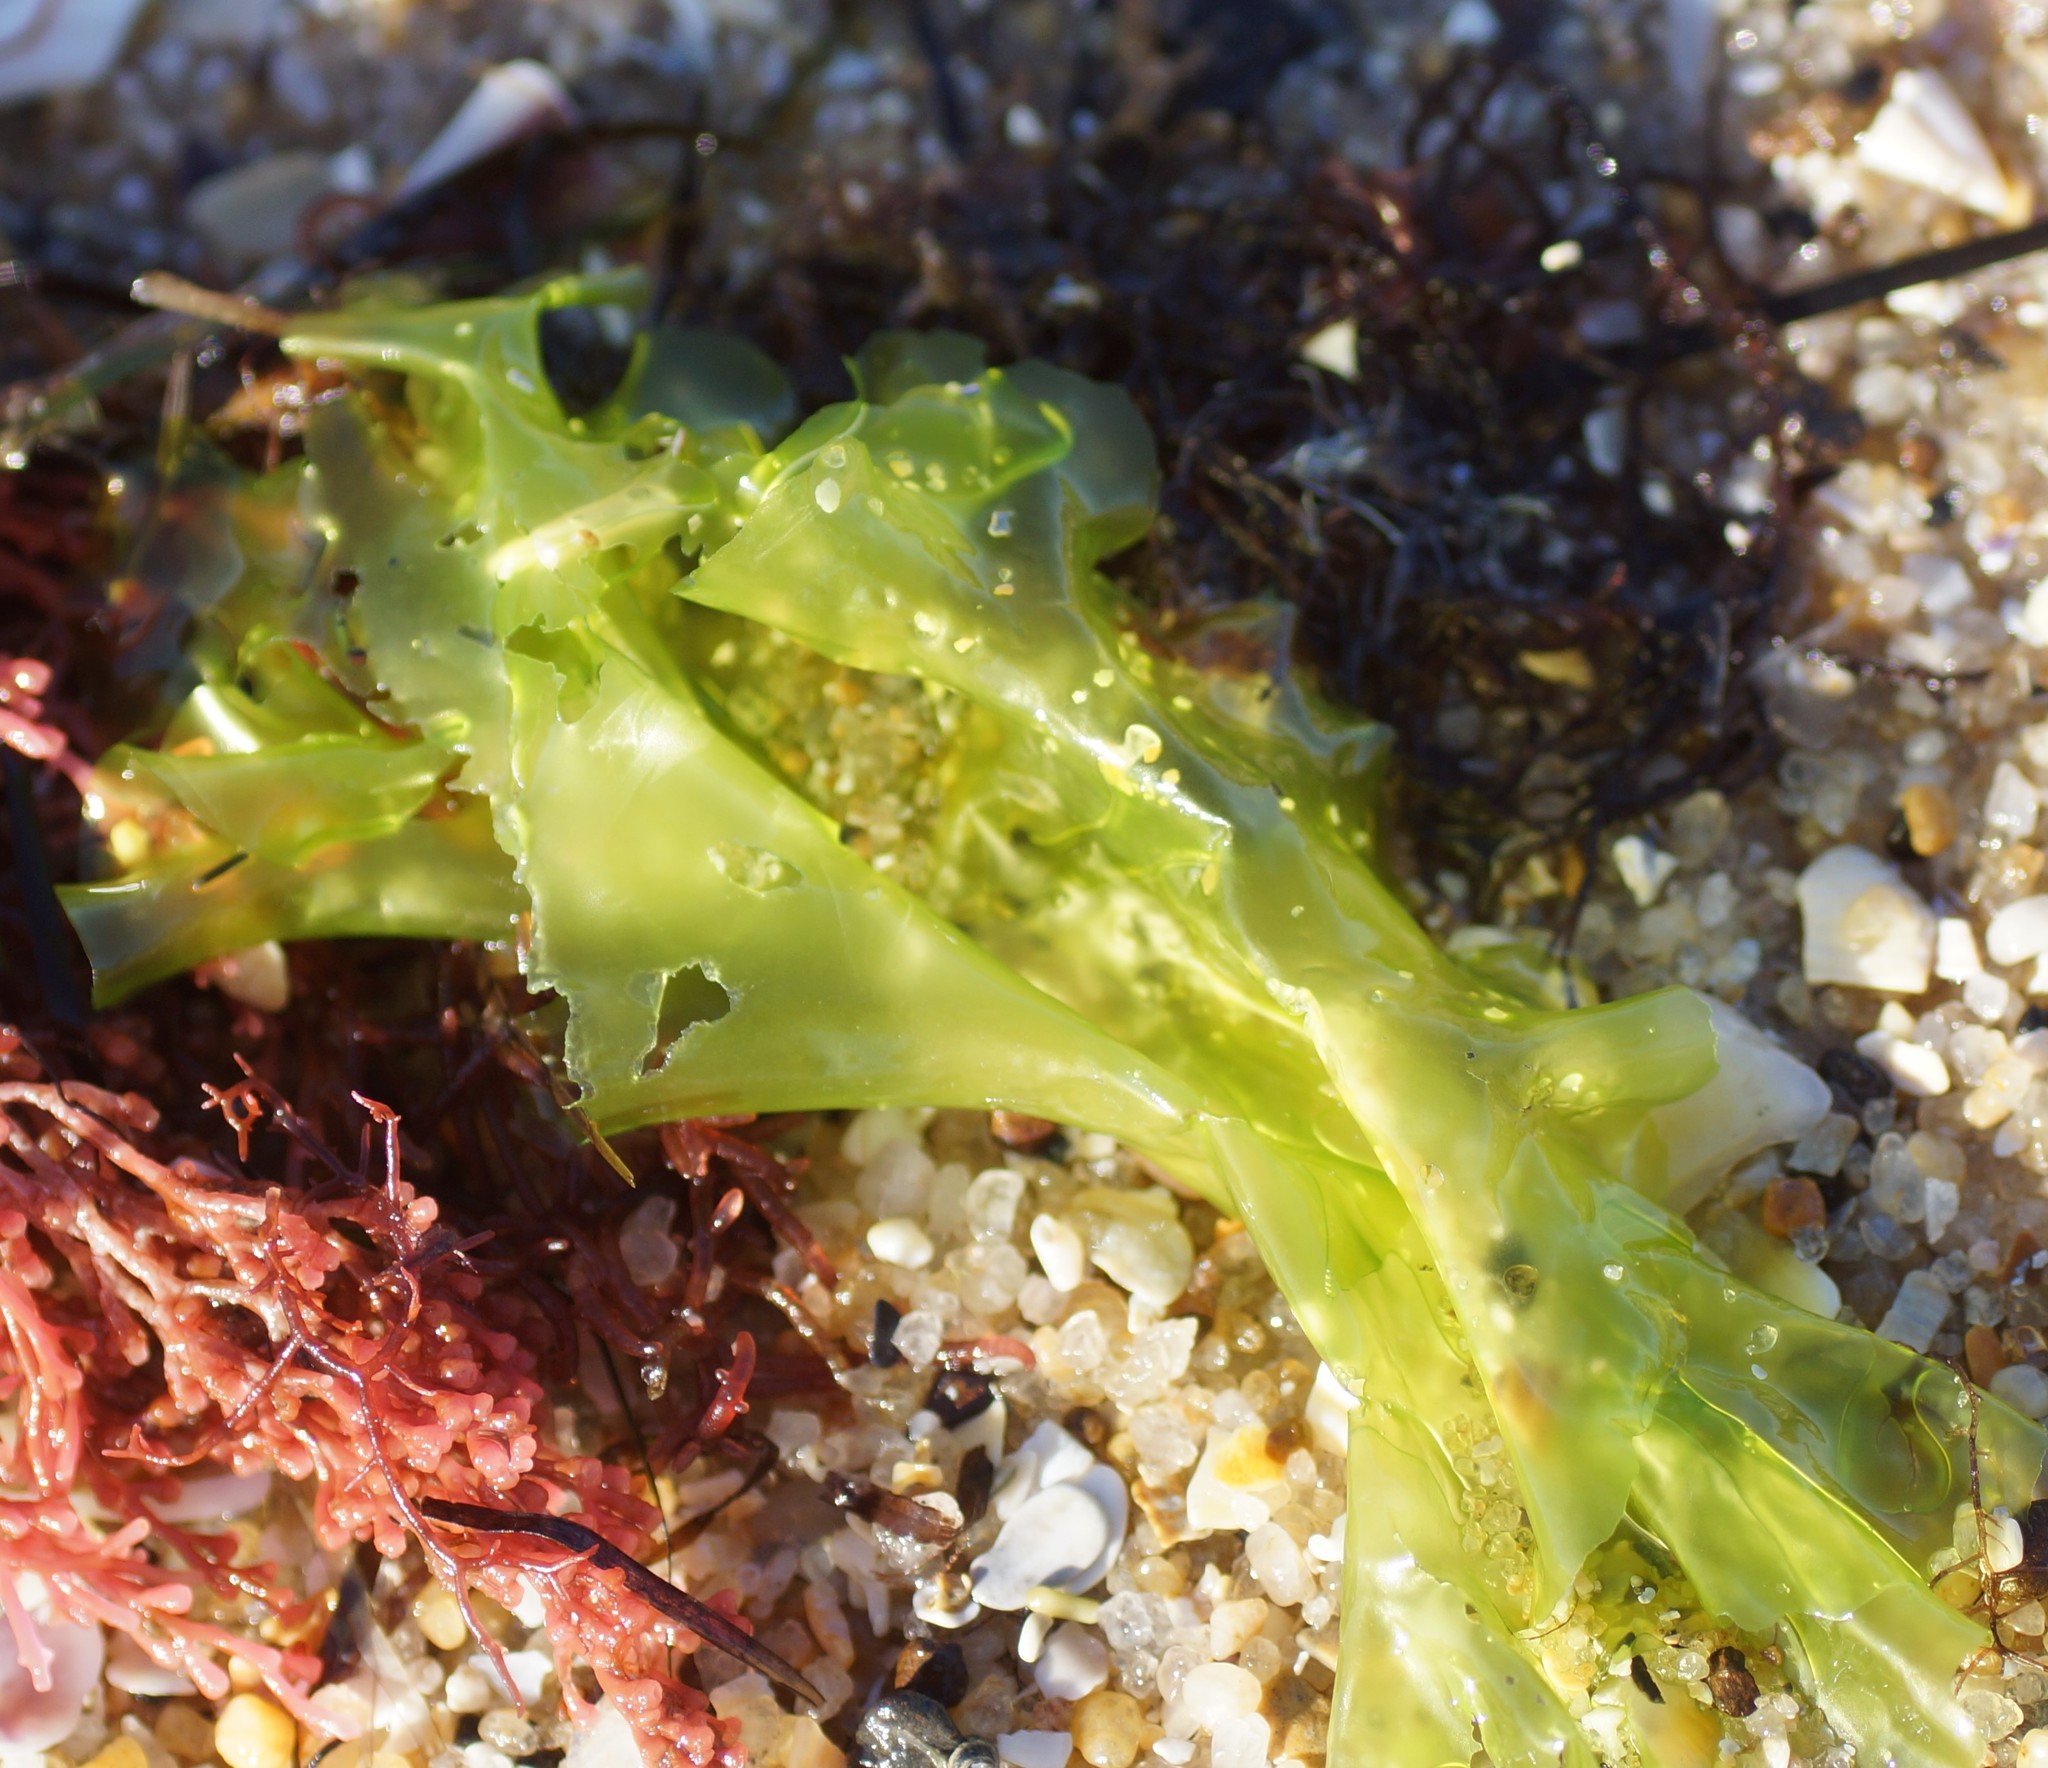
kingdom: Plantae
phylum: Chlorophyta
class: Ulvophyceae
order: Ulvales
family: Ulvaceae
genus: Ulva
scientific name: Ulva
